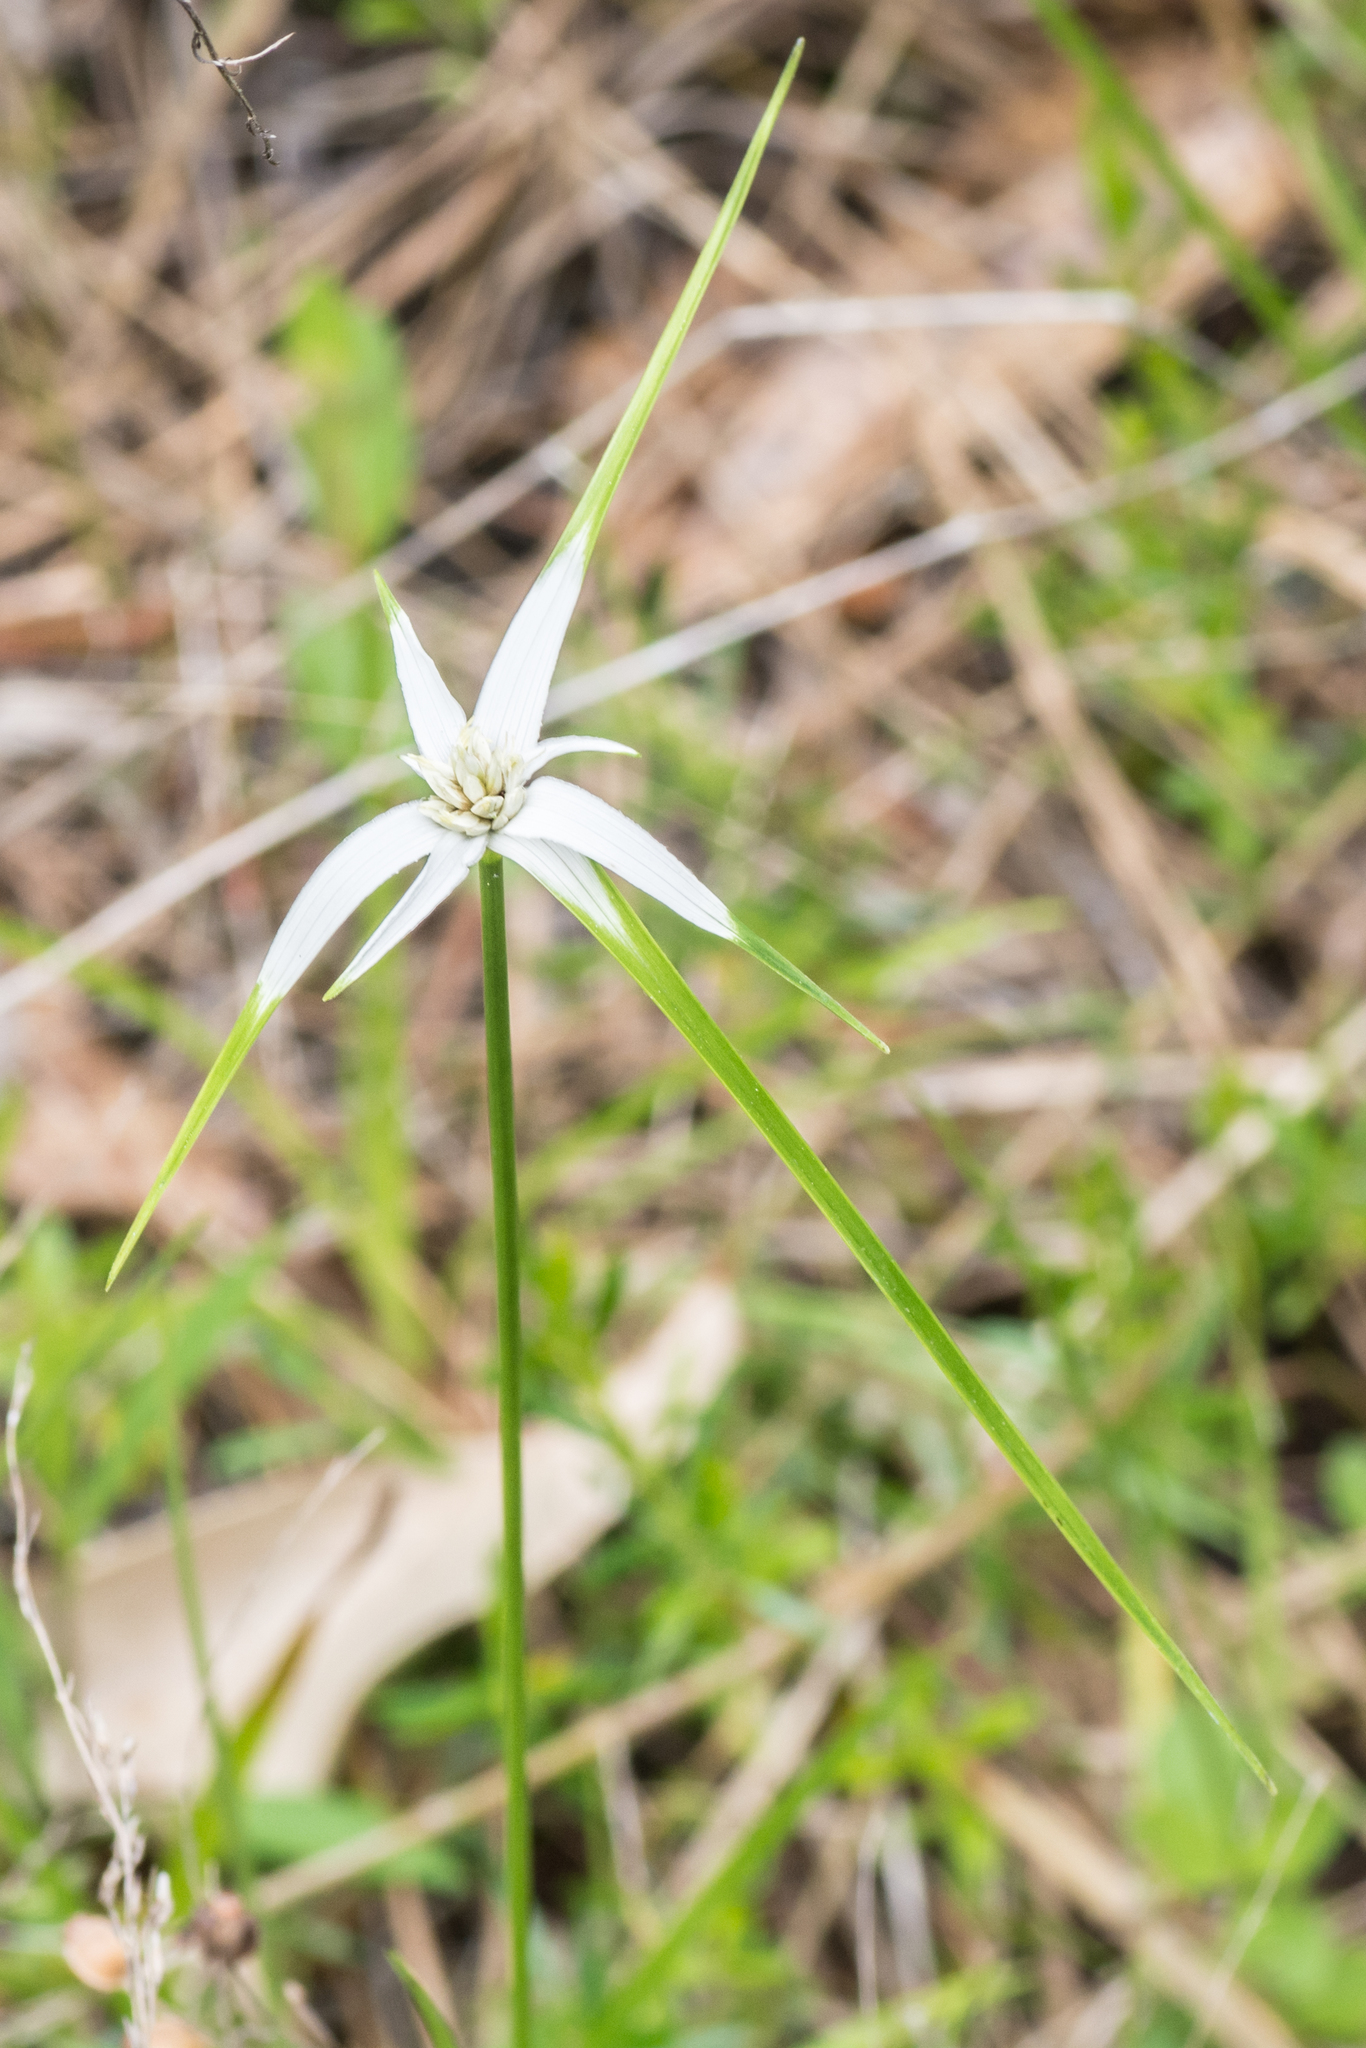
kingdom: Plantae
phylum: Tracheophyta
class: Liliopsida
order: Poales
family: Cyperaceae
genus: Rhynchospora
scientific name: Rhynchospora colorata
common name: Star sedge
